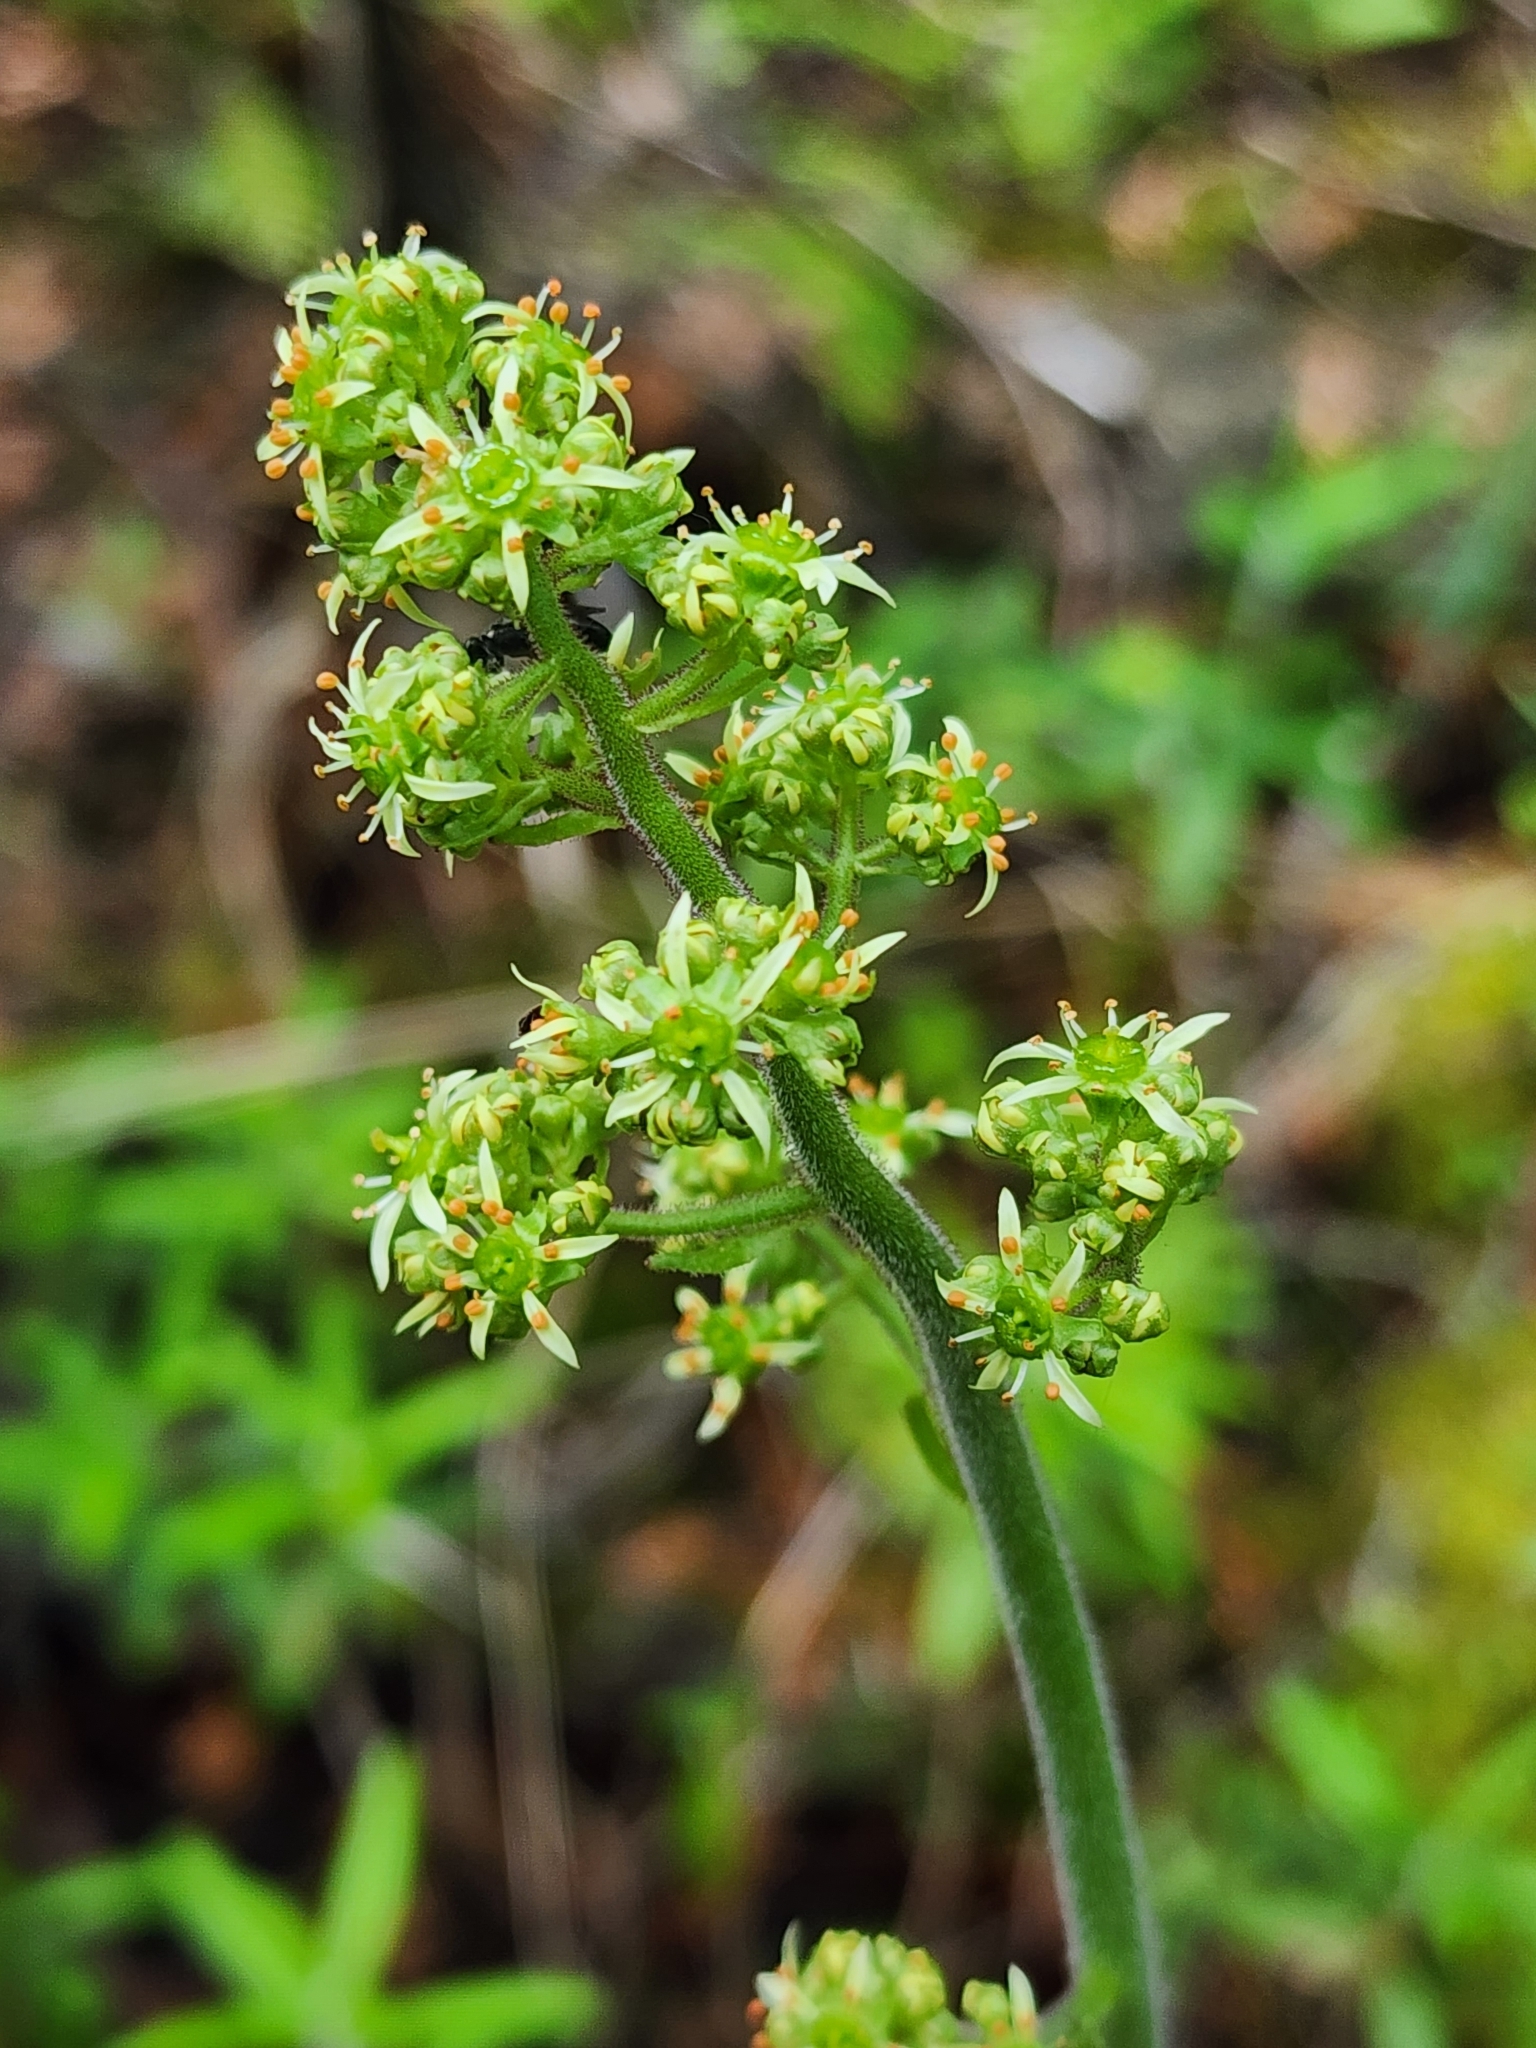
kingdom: Plantae
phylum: Tracheophyta
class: Magnoliopsida
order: Saxifragales
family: Saxifragaceae
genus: Micranthes
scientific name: Micranthes pensylvanica
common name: Marsh saxifrage
